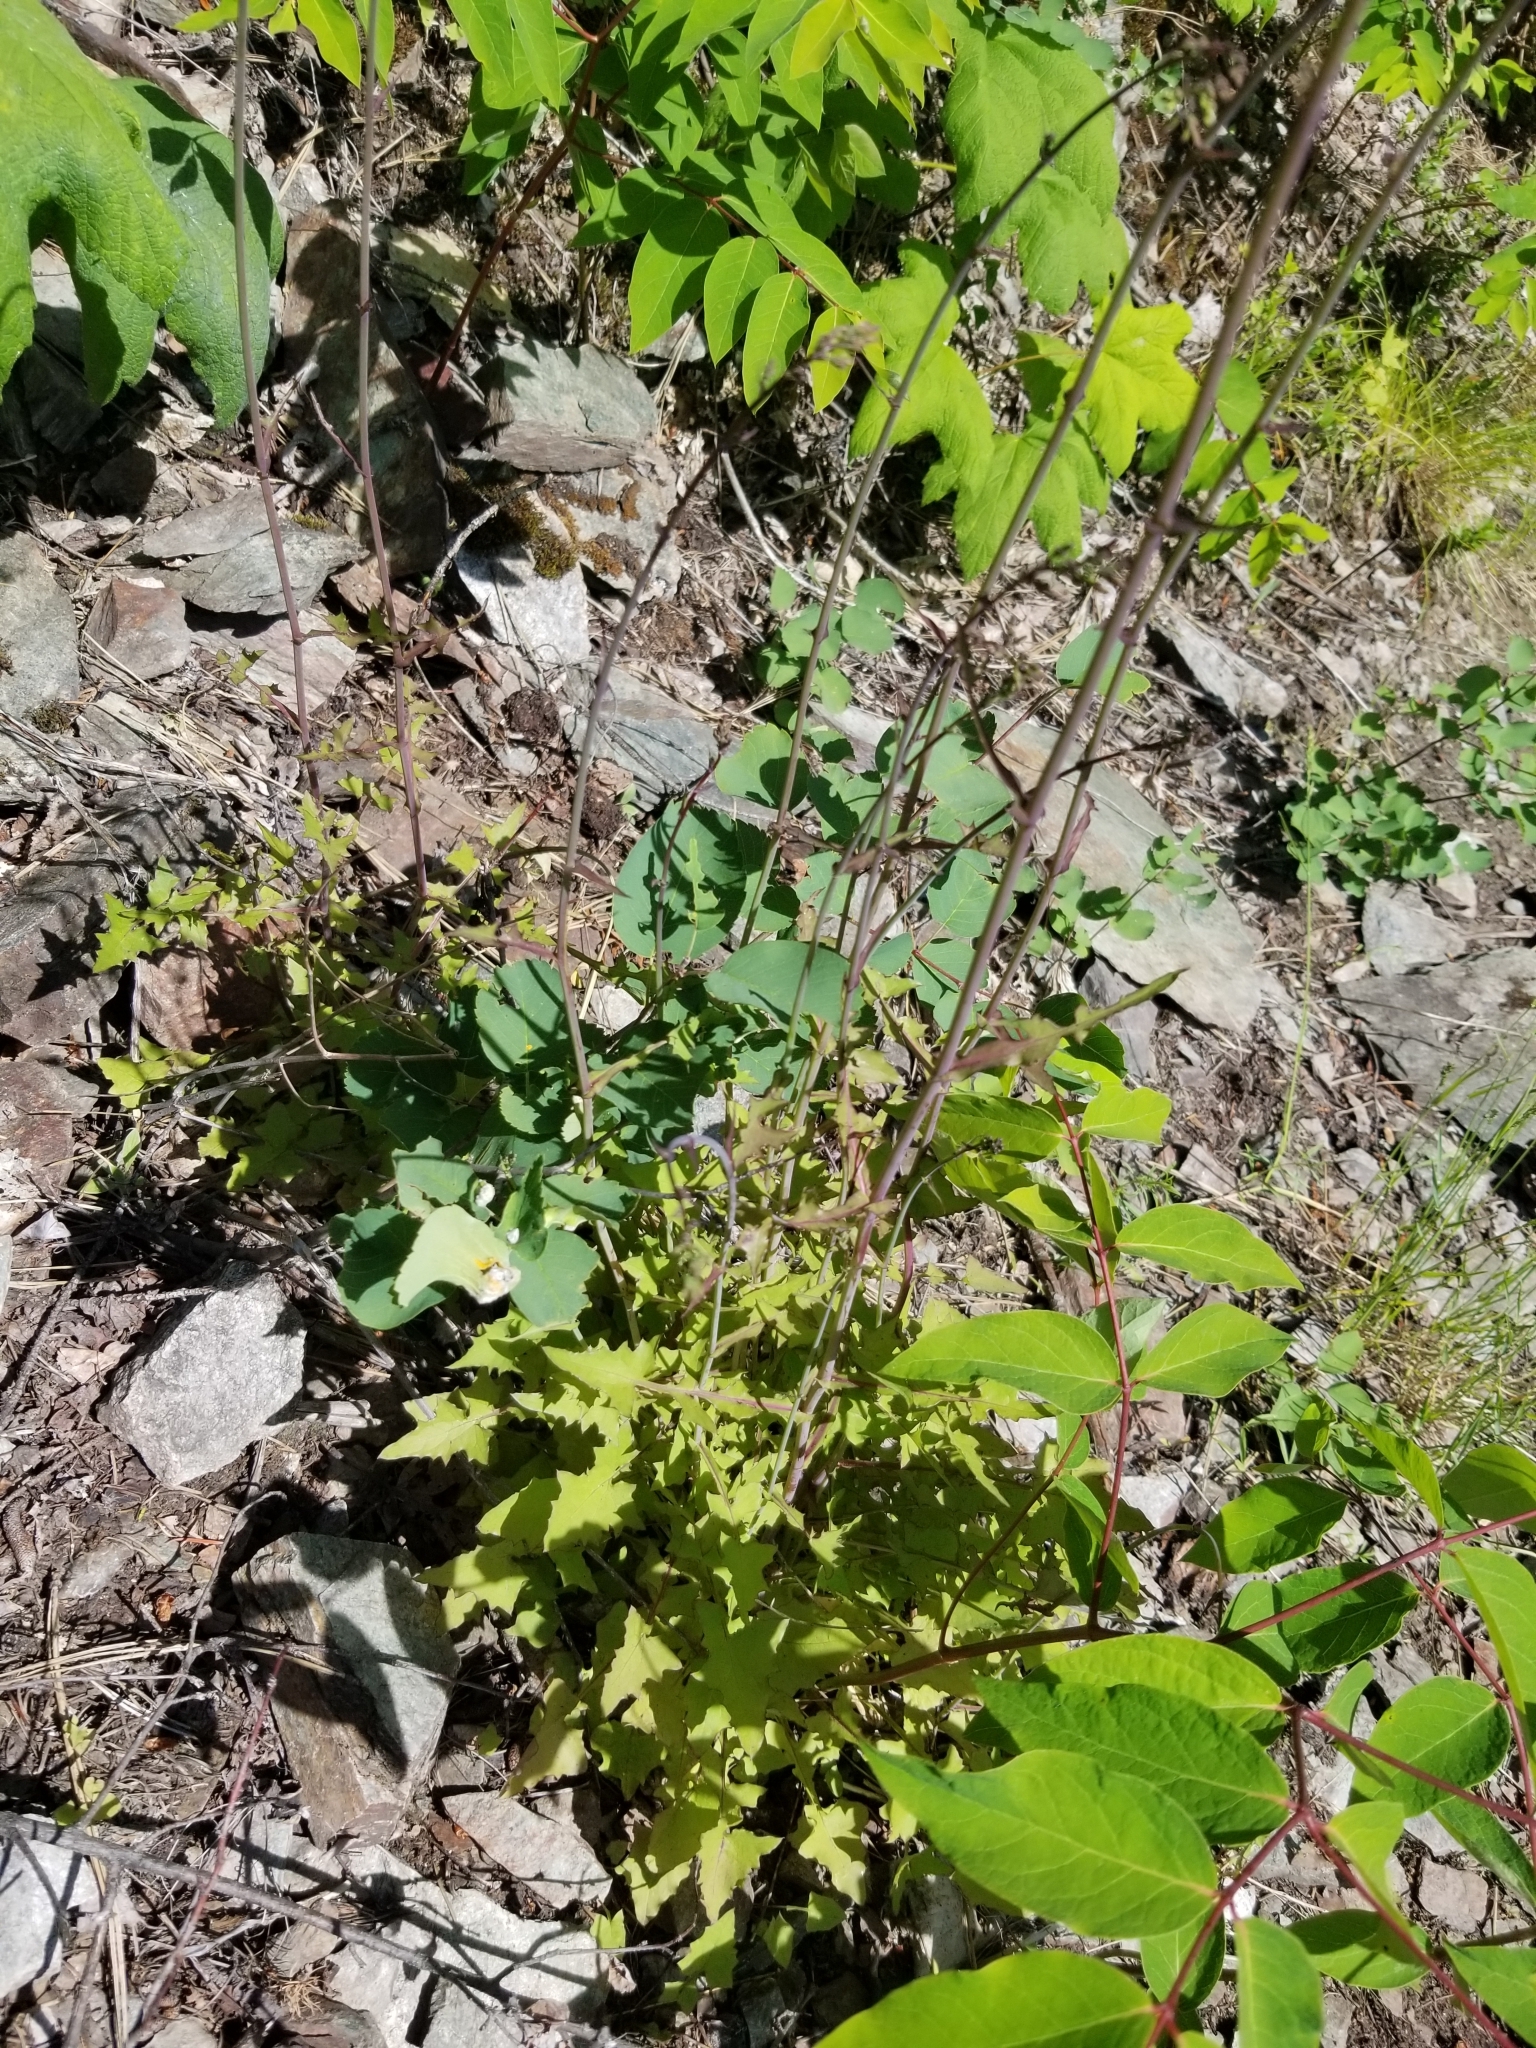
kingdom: Plantae
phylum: Tracheophyta
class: Magnoliopsida
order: Asterales
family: Asteraceae
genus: Mycelis
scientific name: Mycelis muralis
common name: Wall lettuce
